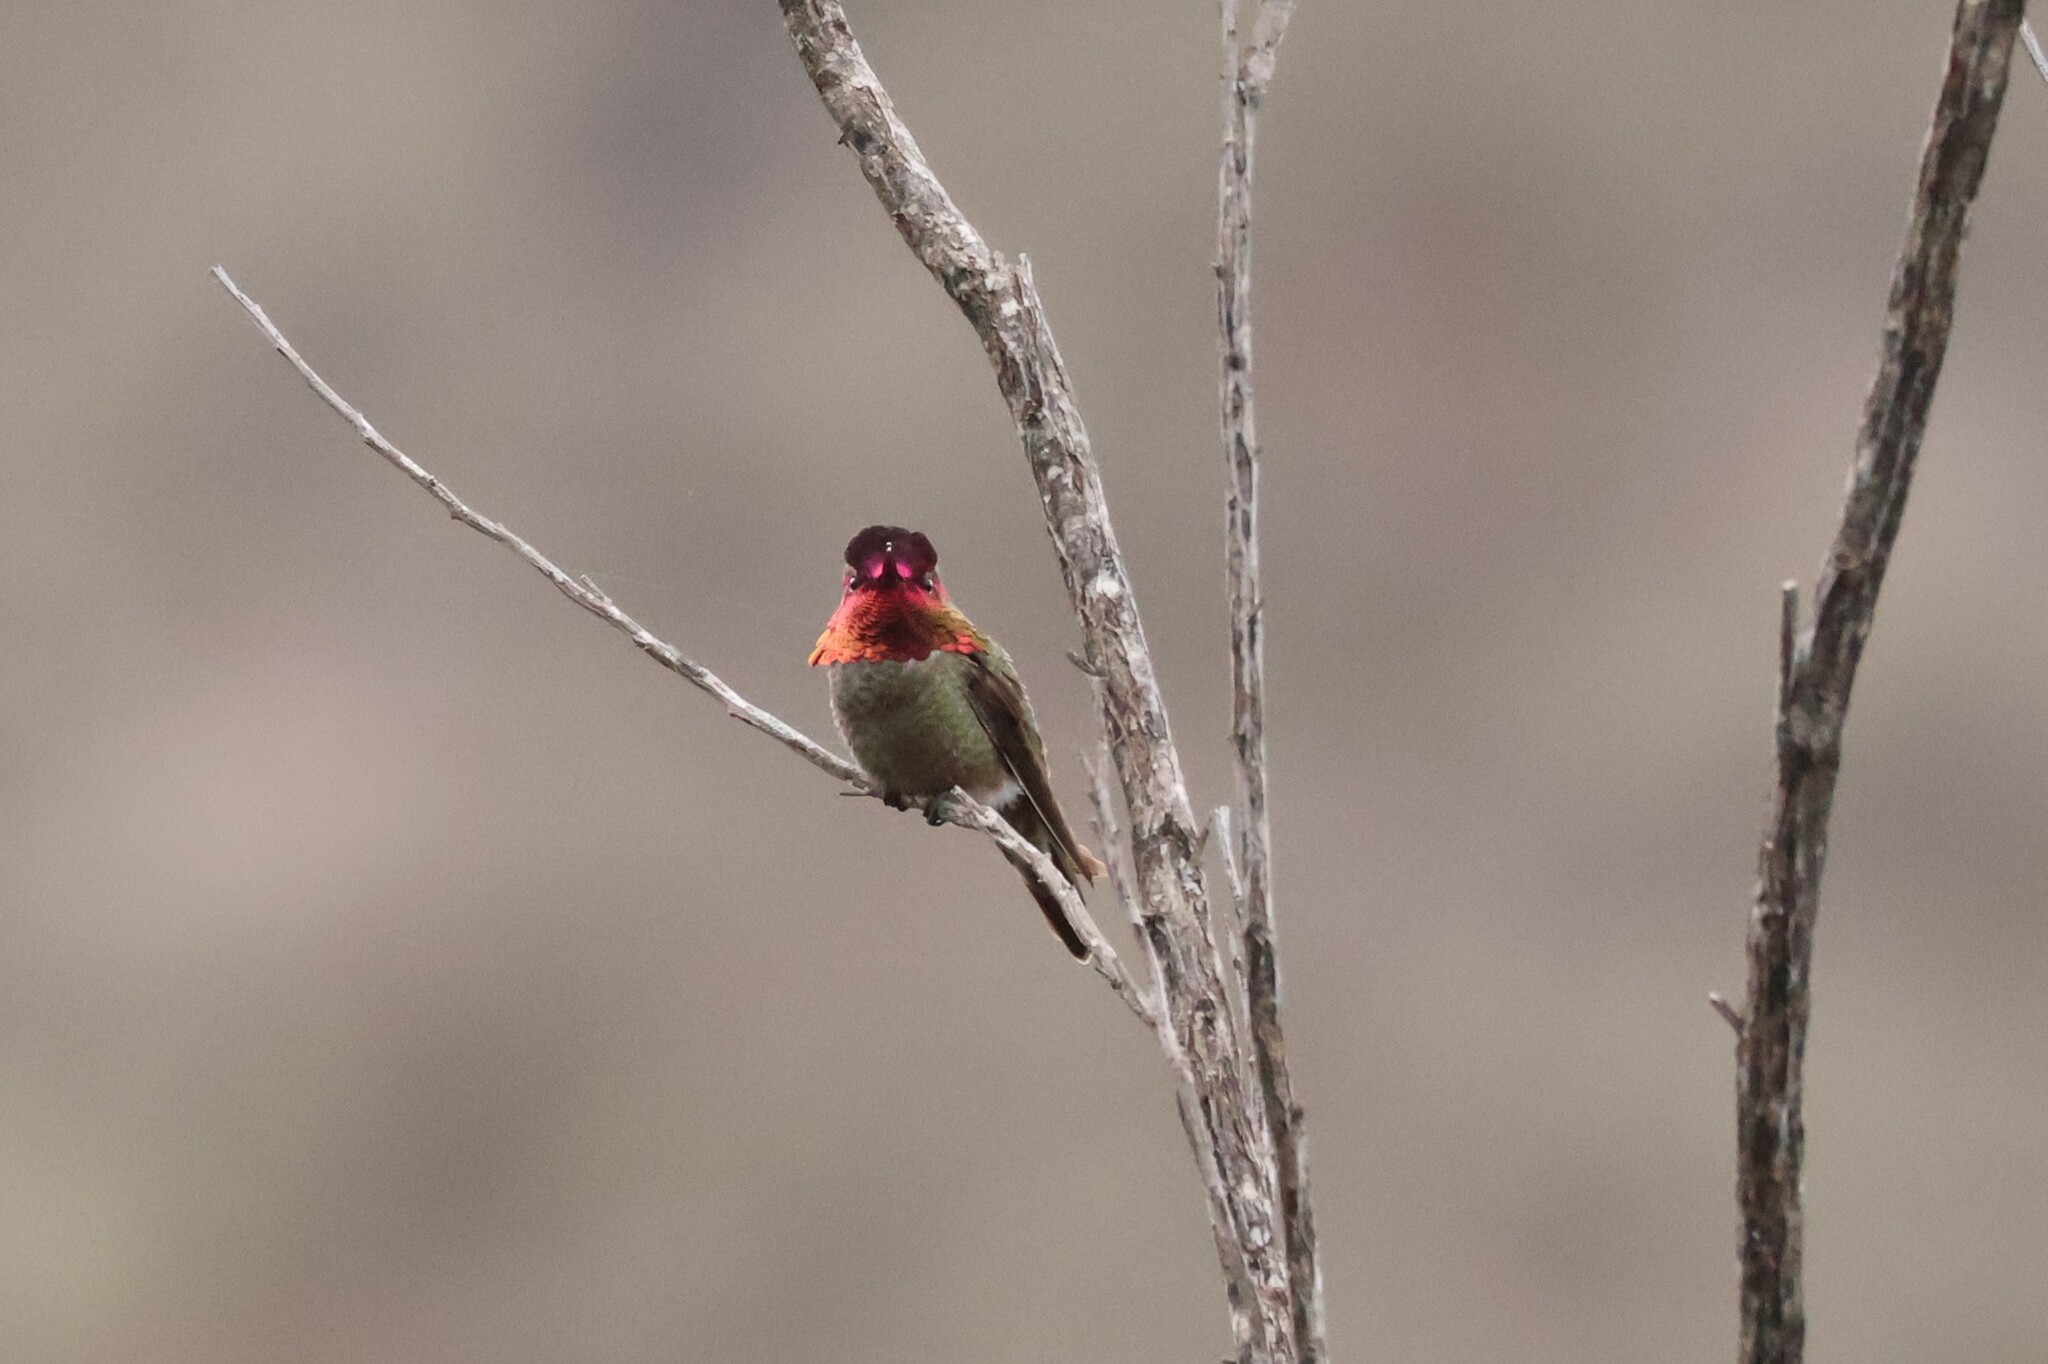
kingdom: Animalia
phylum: Chordata
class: Aves
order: Apodiformes
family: Trochilidae
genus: Calypte
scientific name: Calypte anna
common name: Anna's hummingbird
